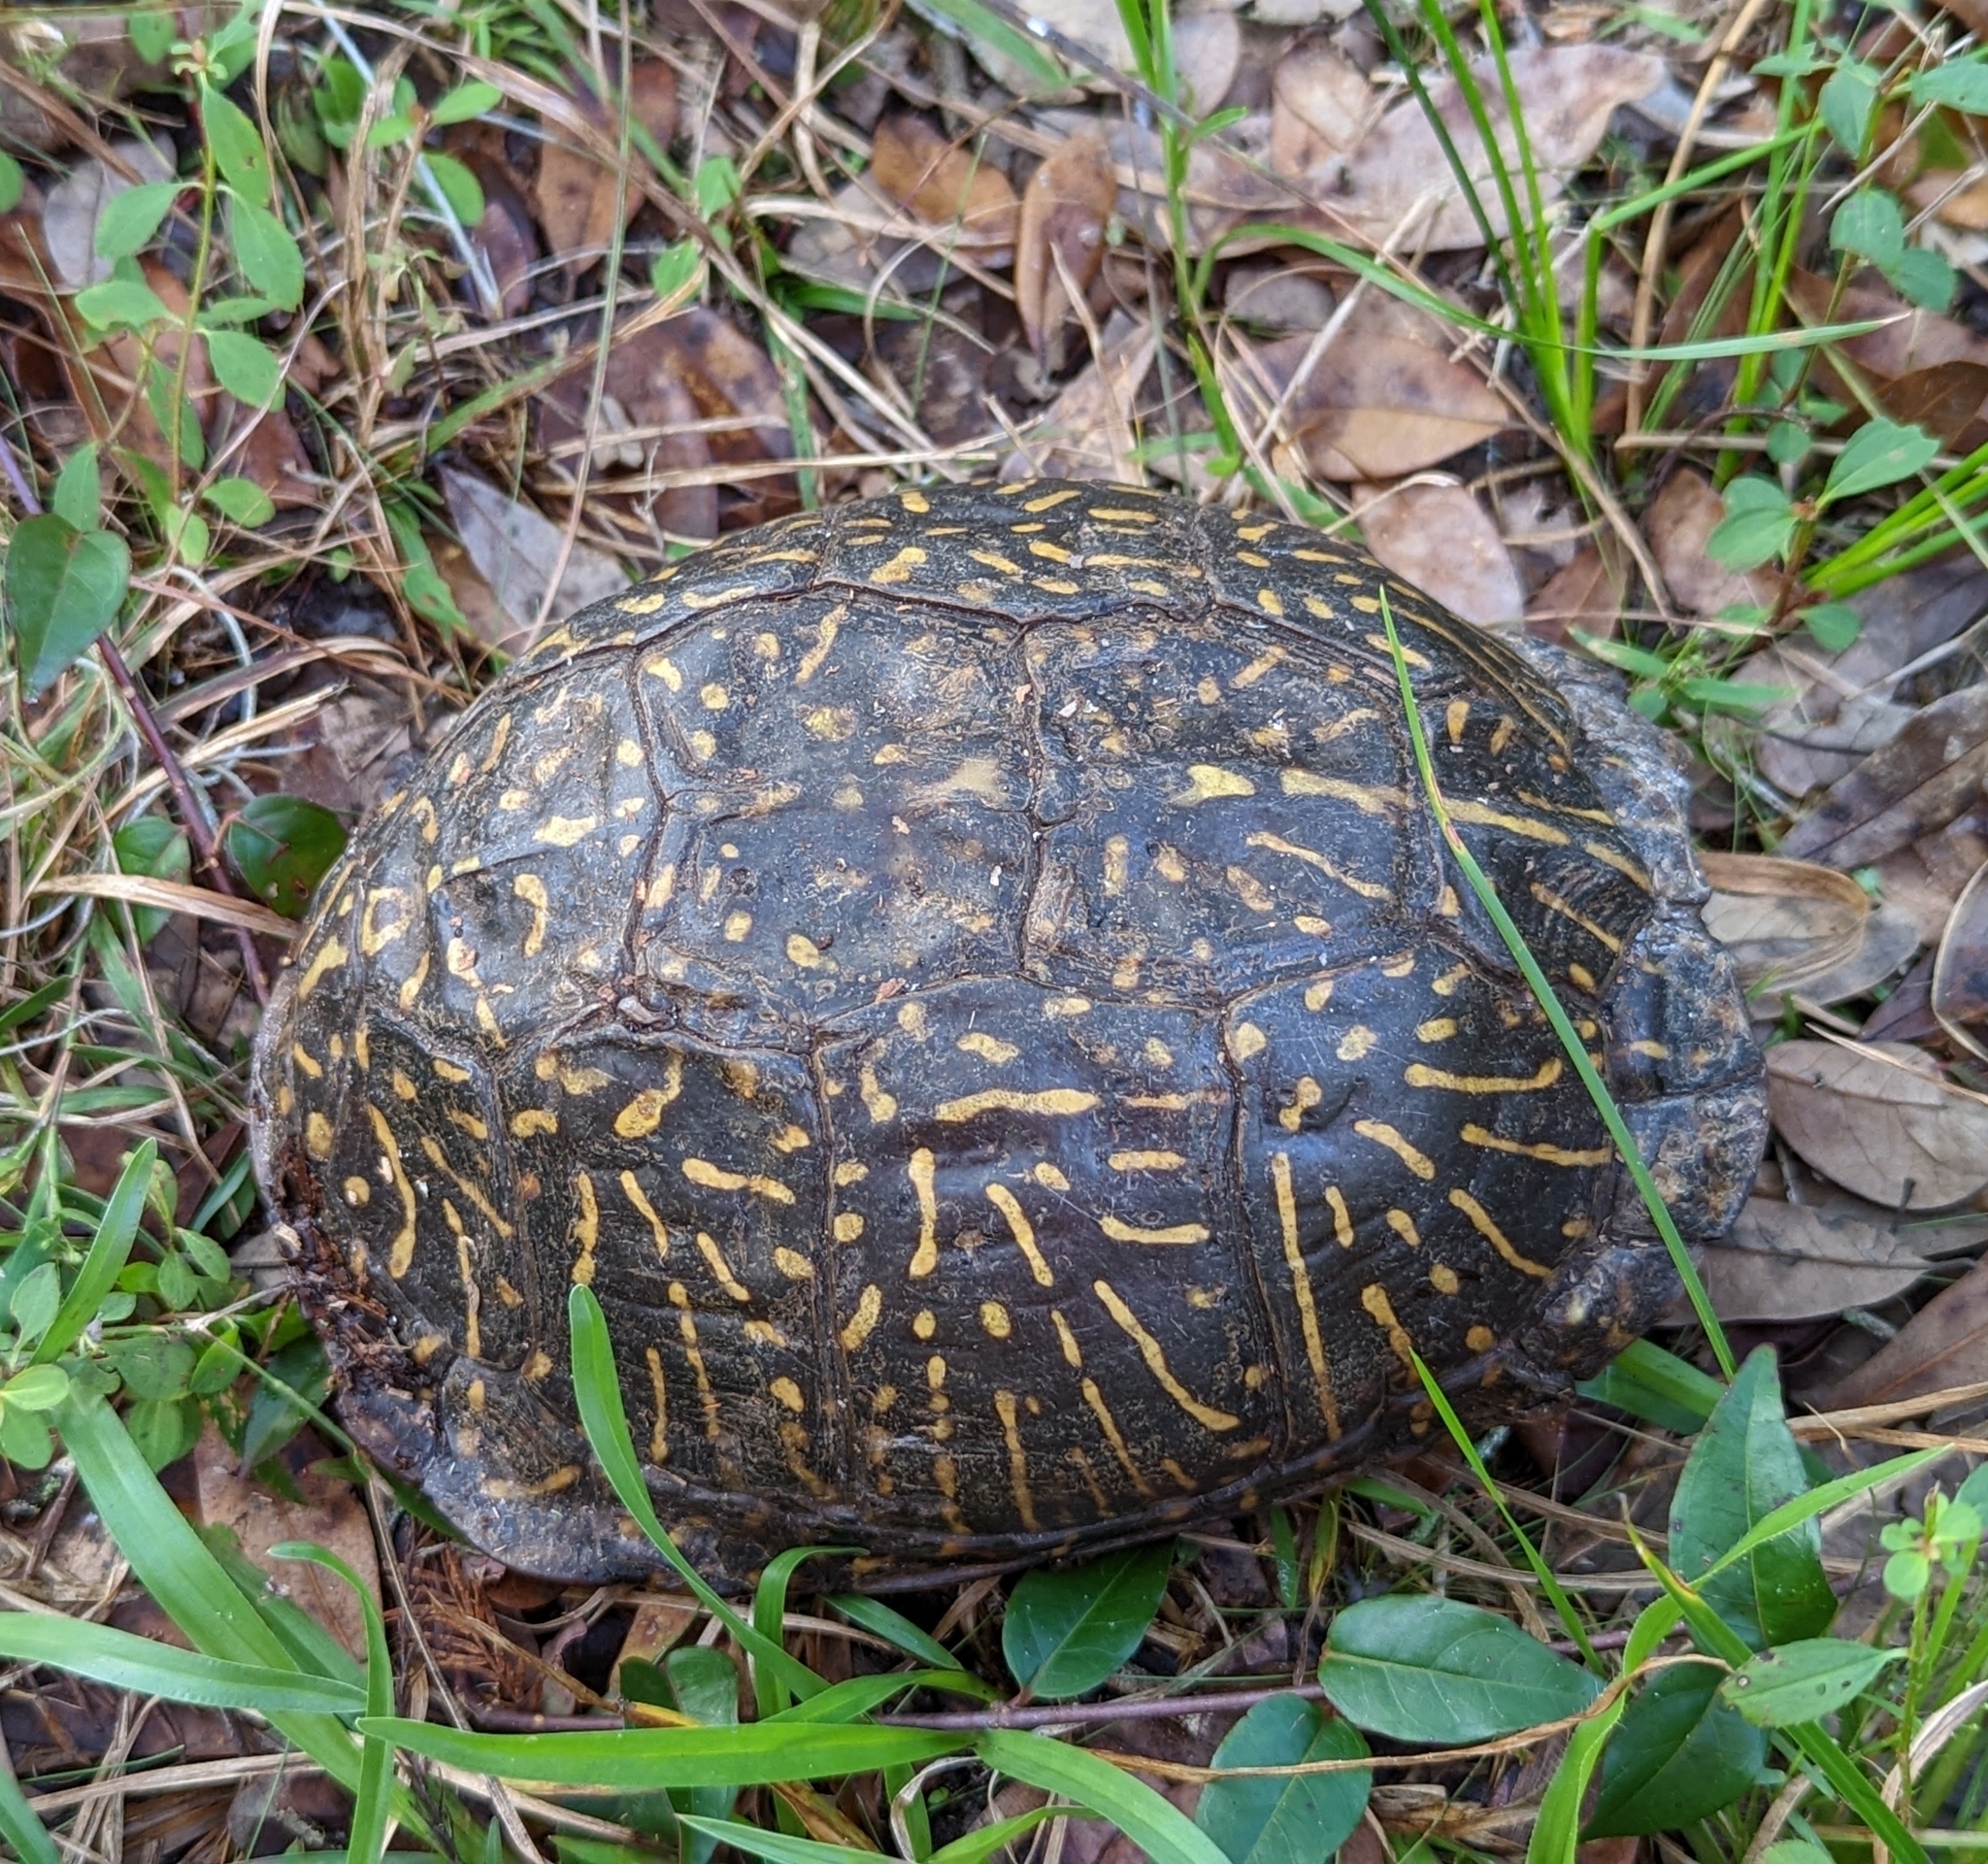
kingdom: Animalia
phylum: Chordata
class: Testudines
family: Emydidae
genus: Terrapene
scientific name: Terrapene carolina
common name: Common box turtle
